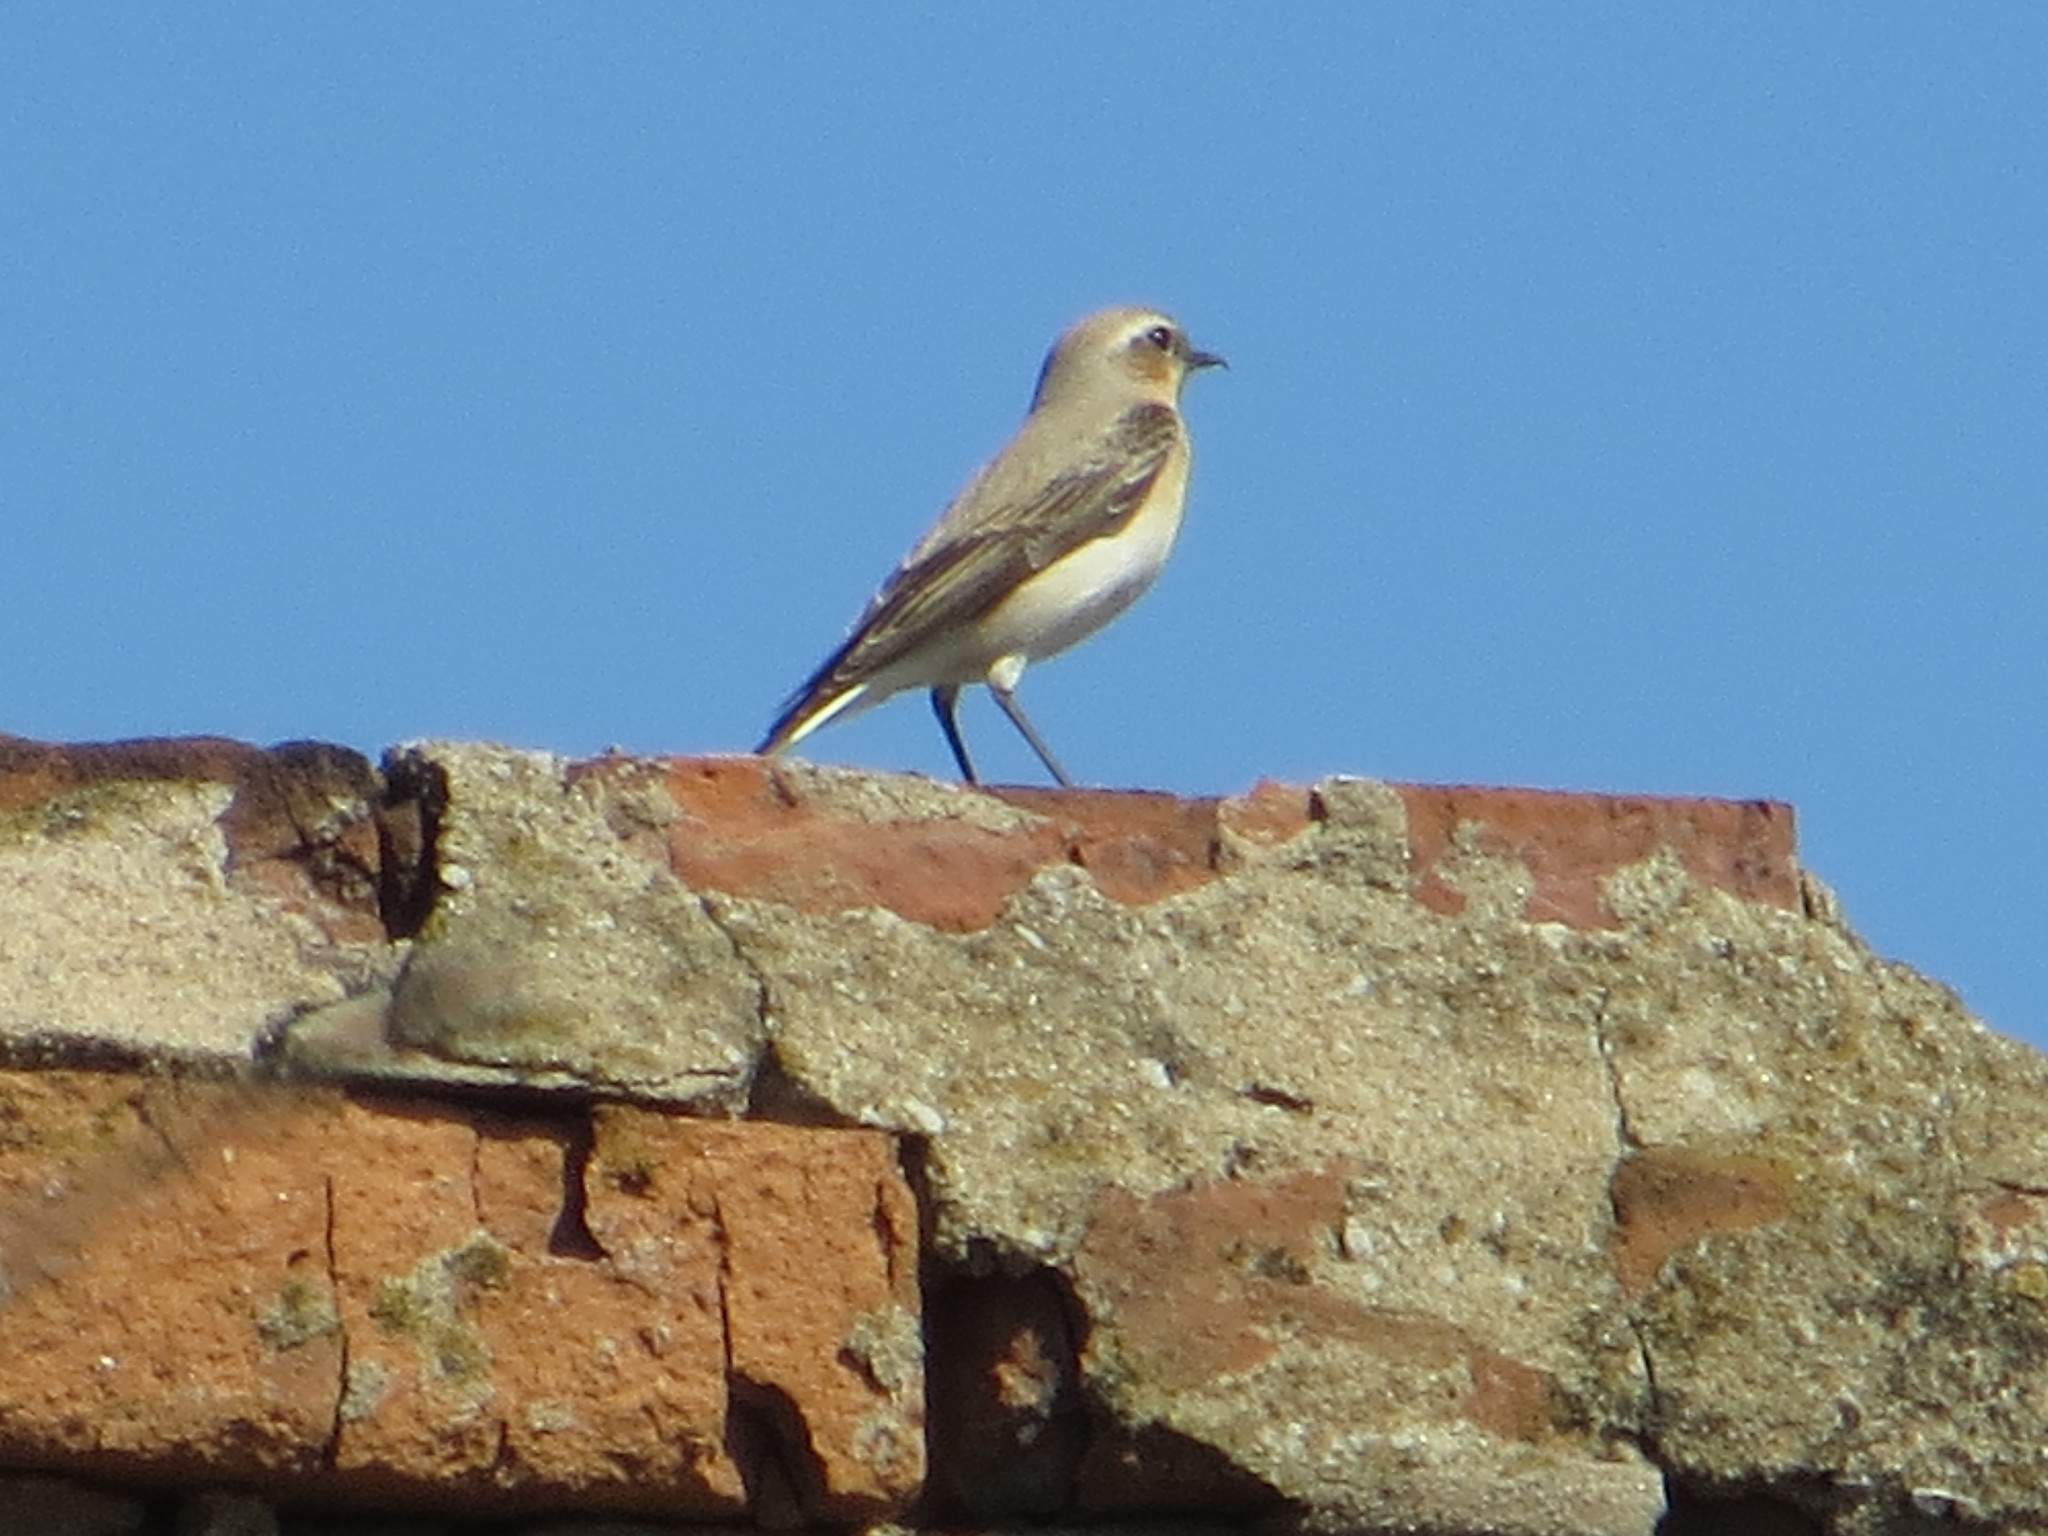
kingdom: Animalia
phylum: Chordata
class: Aves
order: Passeriformes
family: Muscicapidae
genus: Oenanthe
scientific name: Oenanthe oenanthe
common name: Northern wheatear
